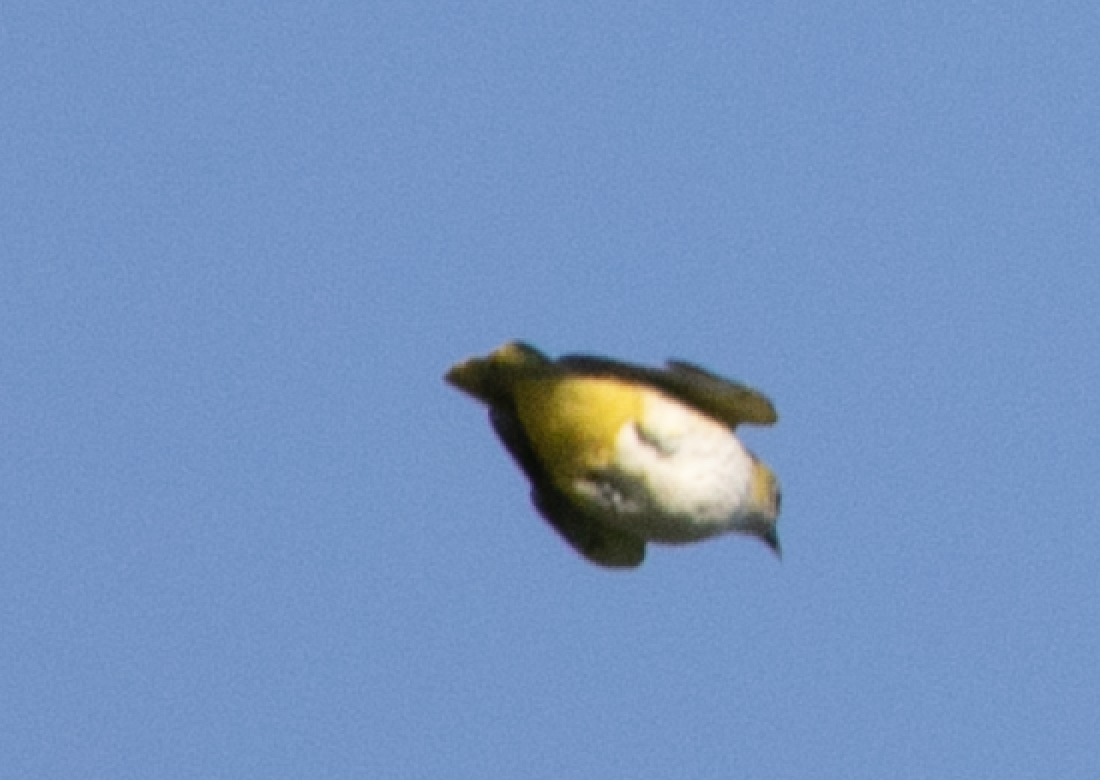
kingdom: Animalia
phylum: Chordata
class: Aves
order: Passeriformes
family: Oriolidae
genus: Oriolus
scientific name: Oriolus oriolus
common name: Eurasian golden oriole
